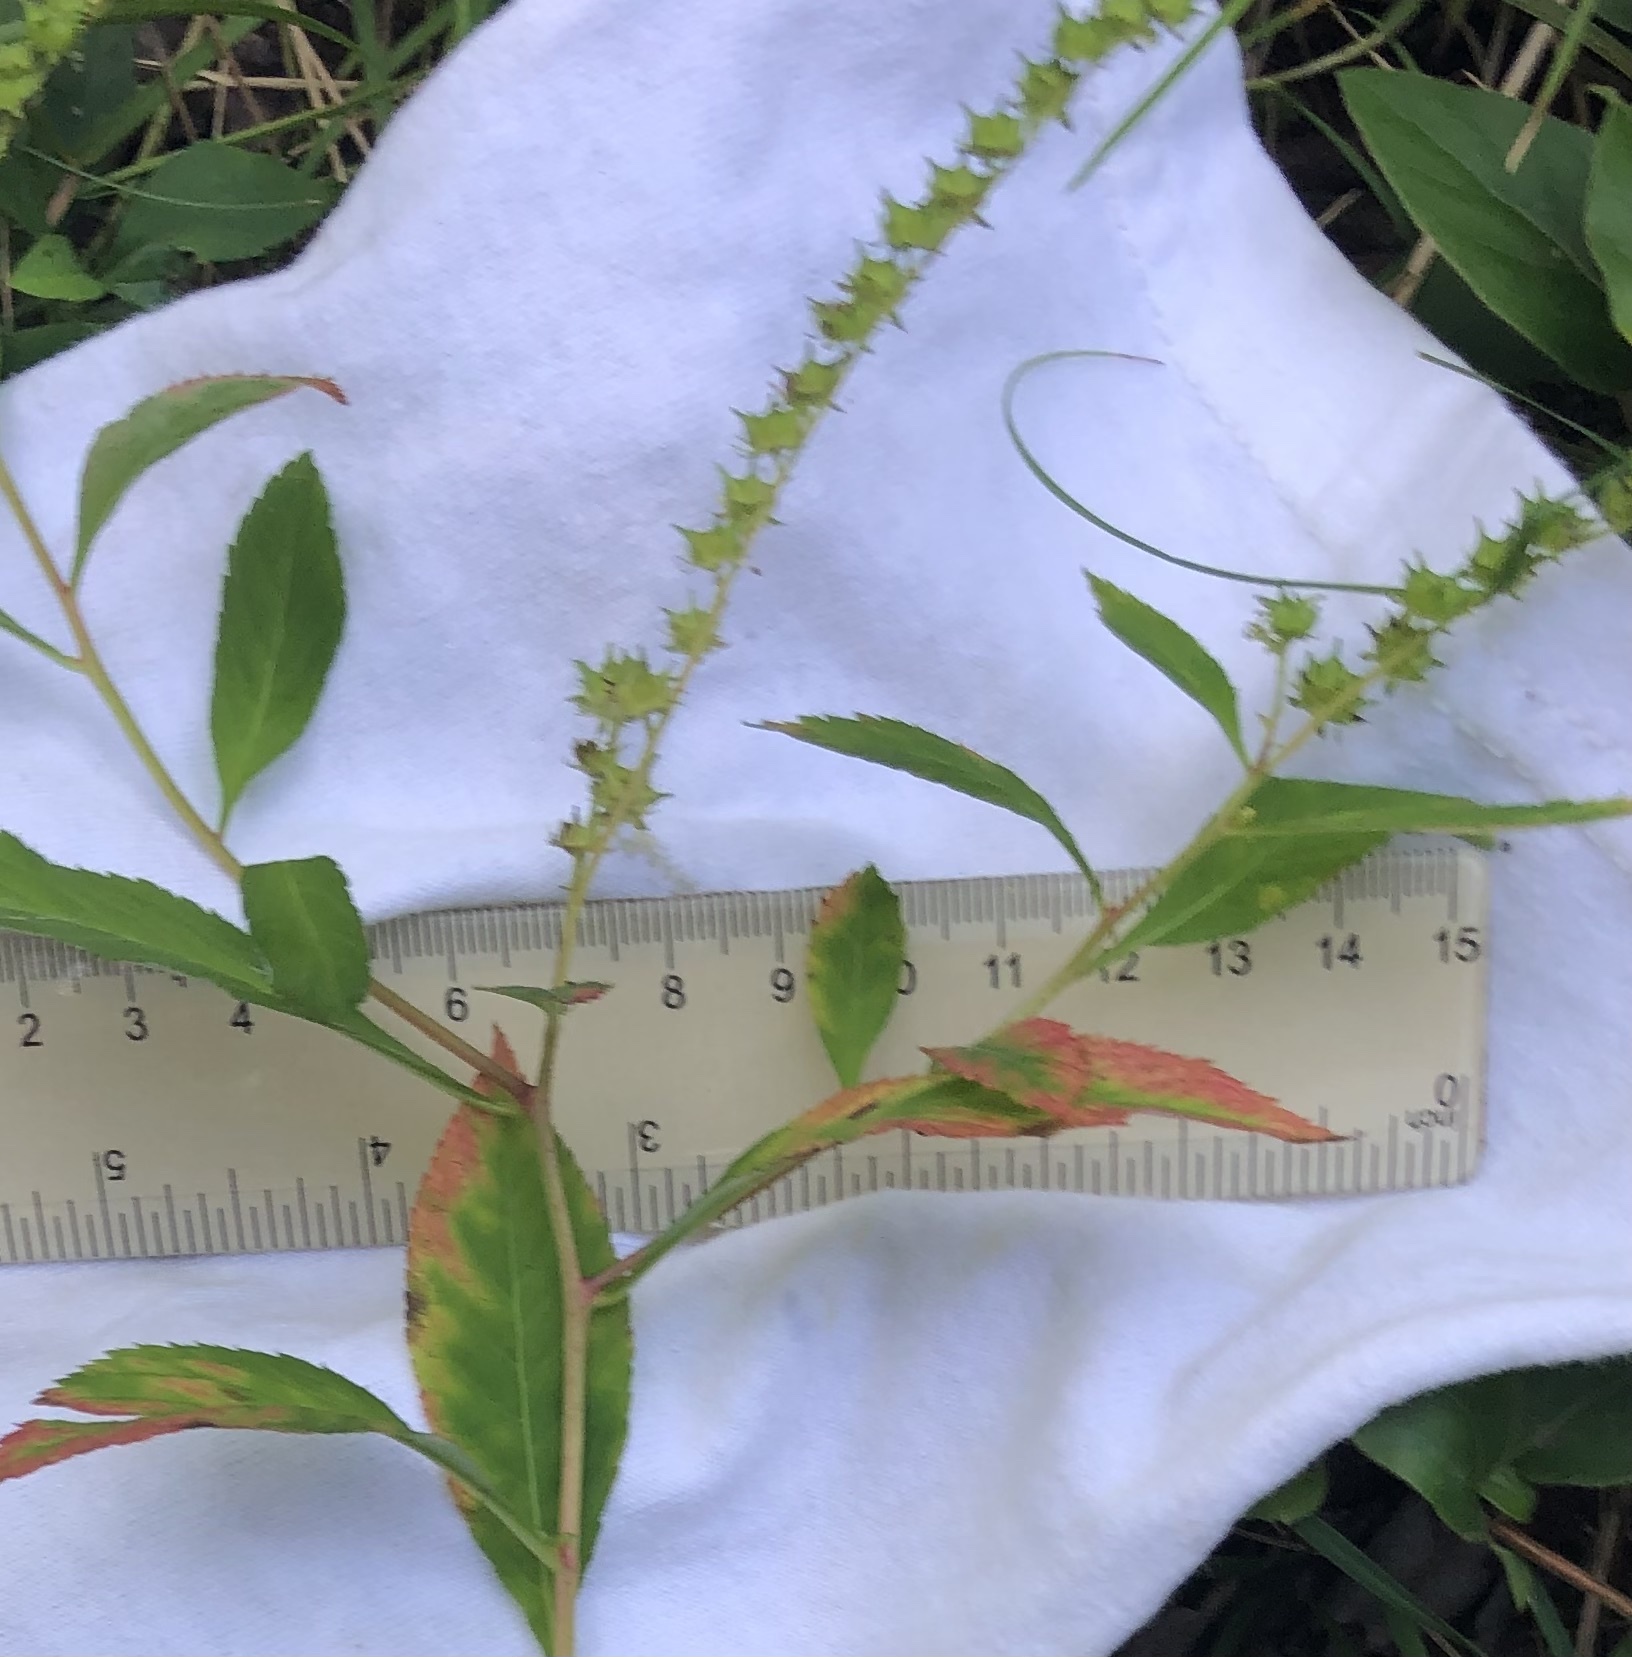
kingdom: Plantae
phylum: Tracheophyta
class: Magnoliopsida
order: Saxifragales
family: Penthoraceae
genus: Penthorum
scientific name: Penthorum sedoides
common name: Ditch stonecrop
